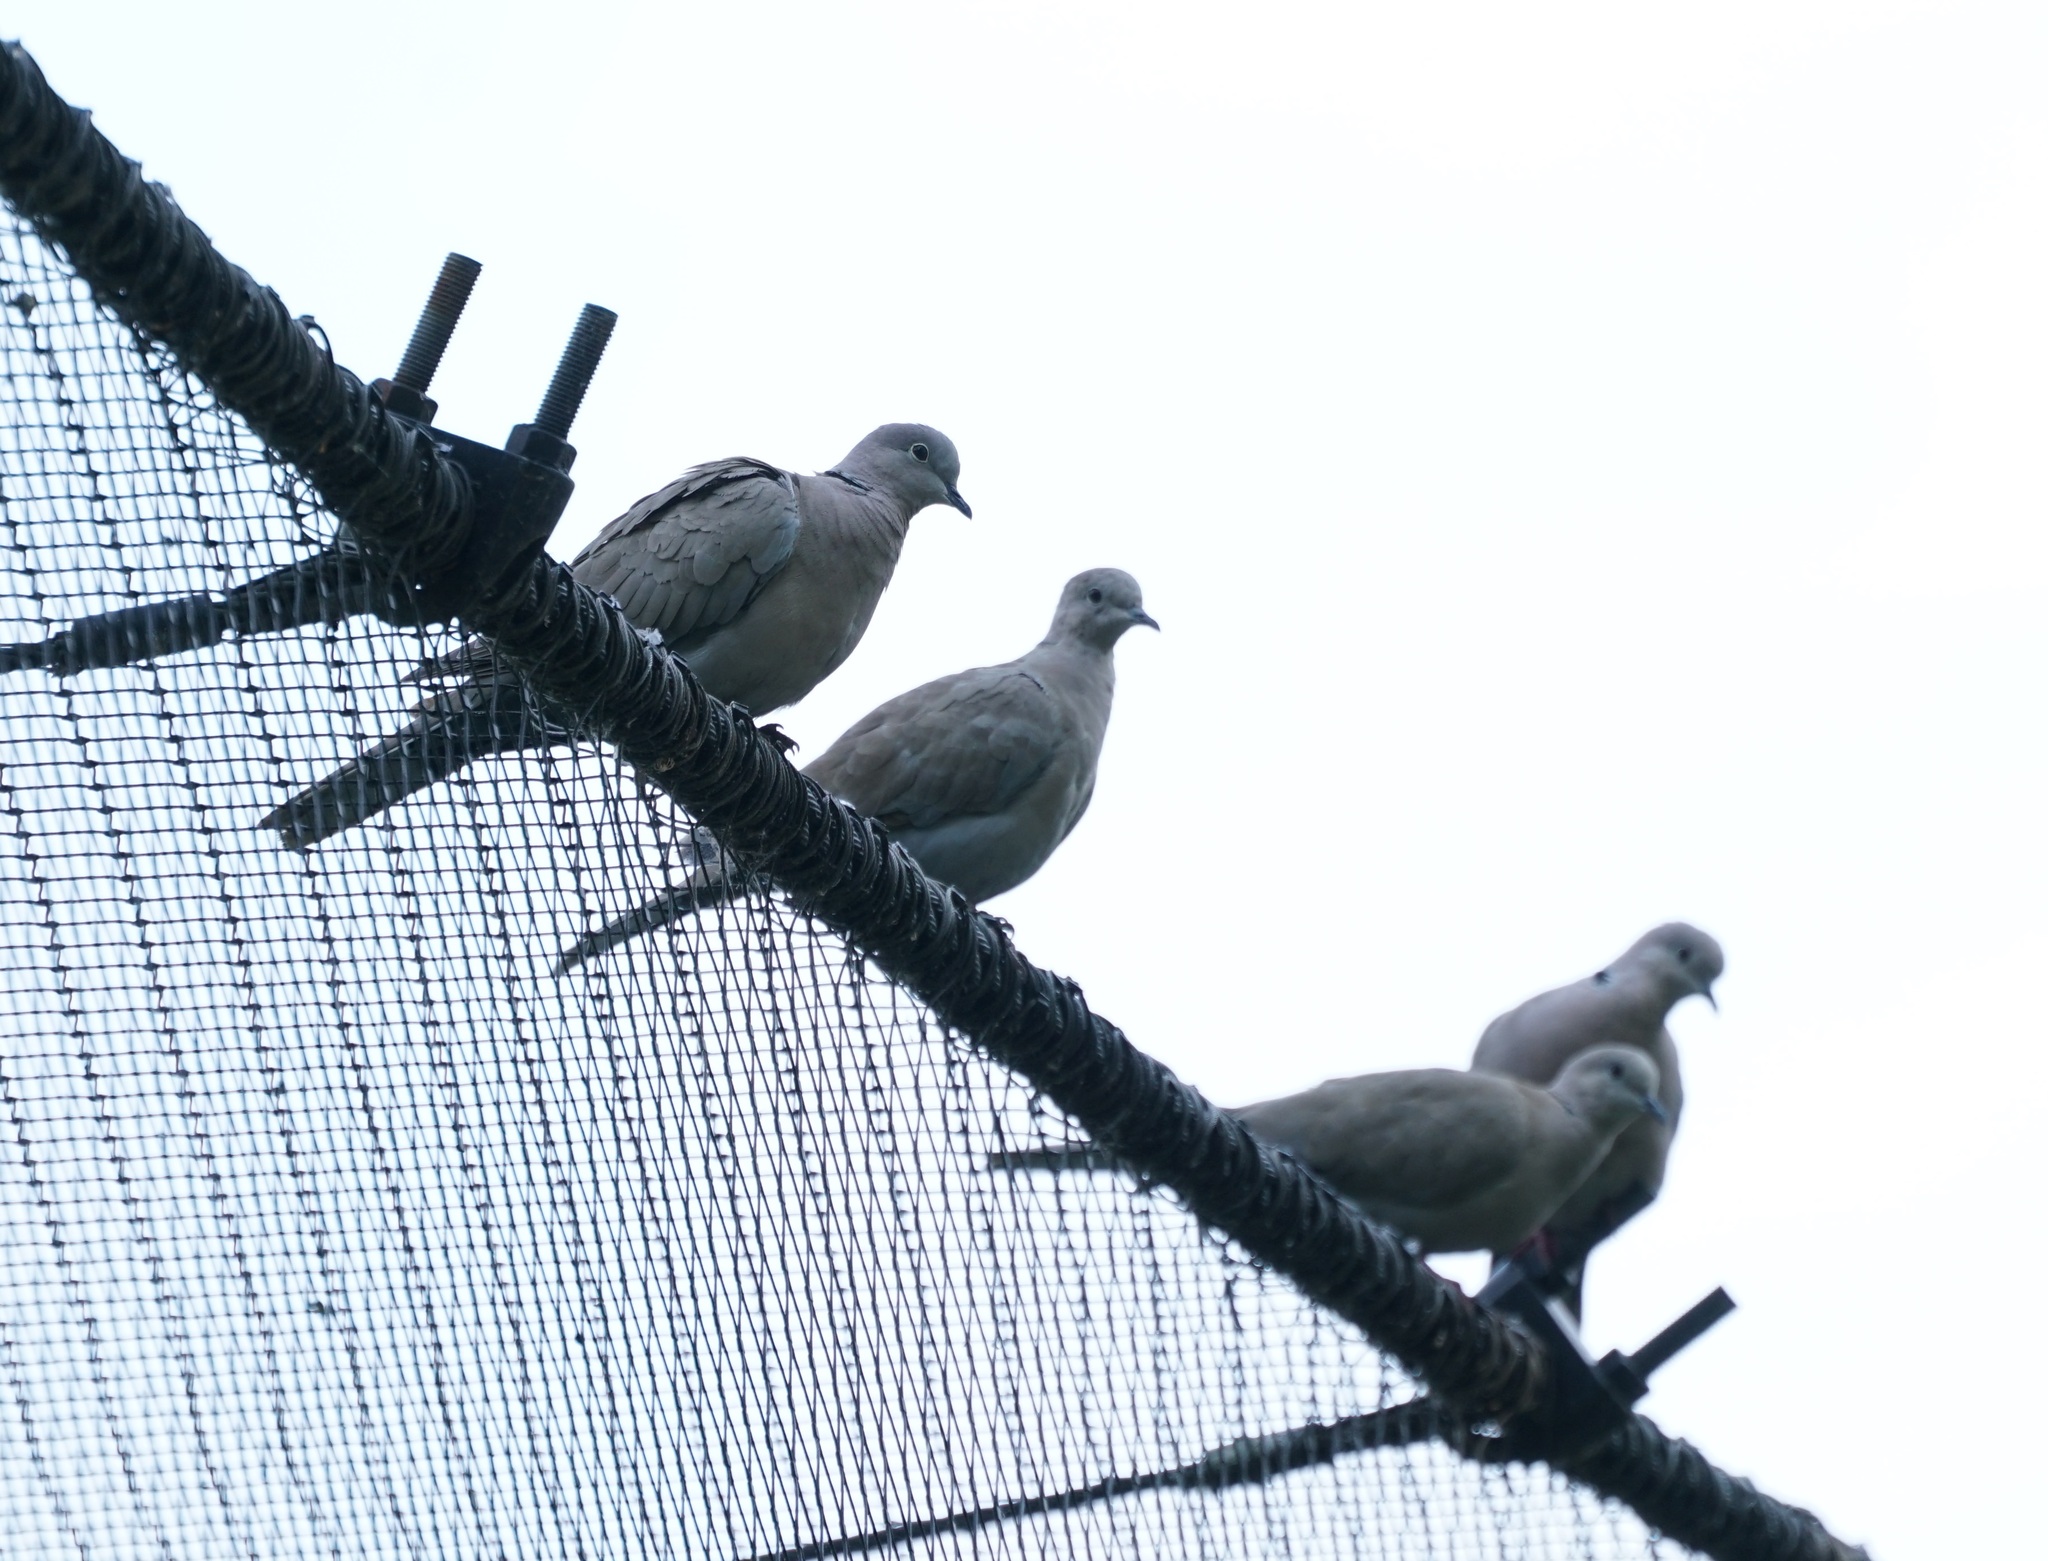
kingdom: Animalia
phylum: Chordata
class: Aves
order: Columbiformes
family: Columbidae
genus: Streptopelia
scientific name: Streptopelia decaocto
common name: Eurasian collared dove
